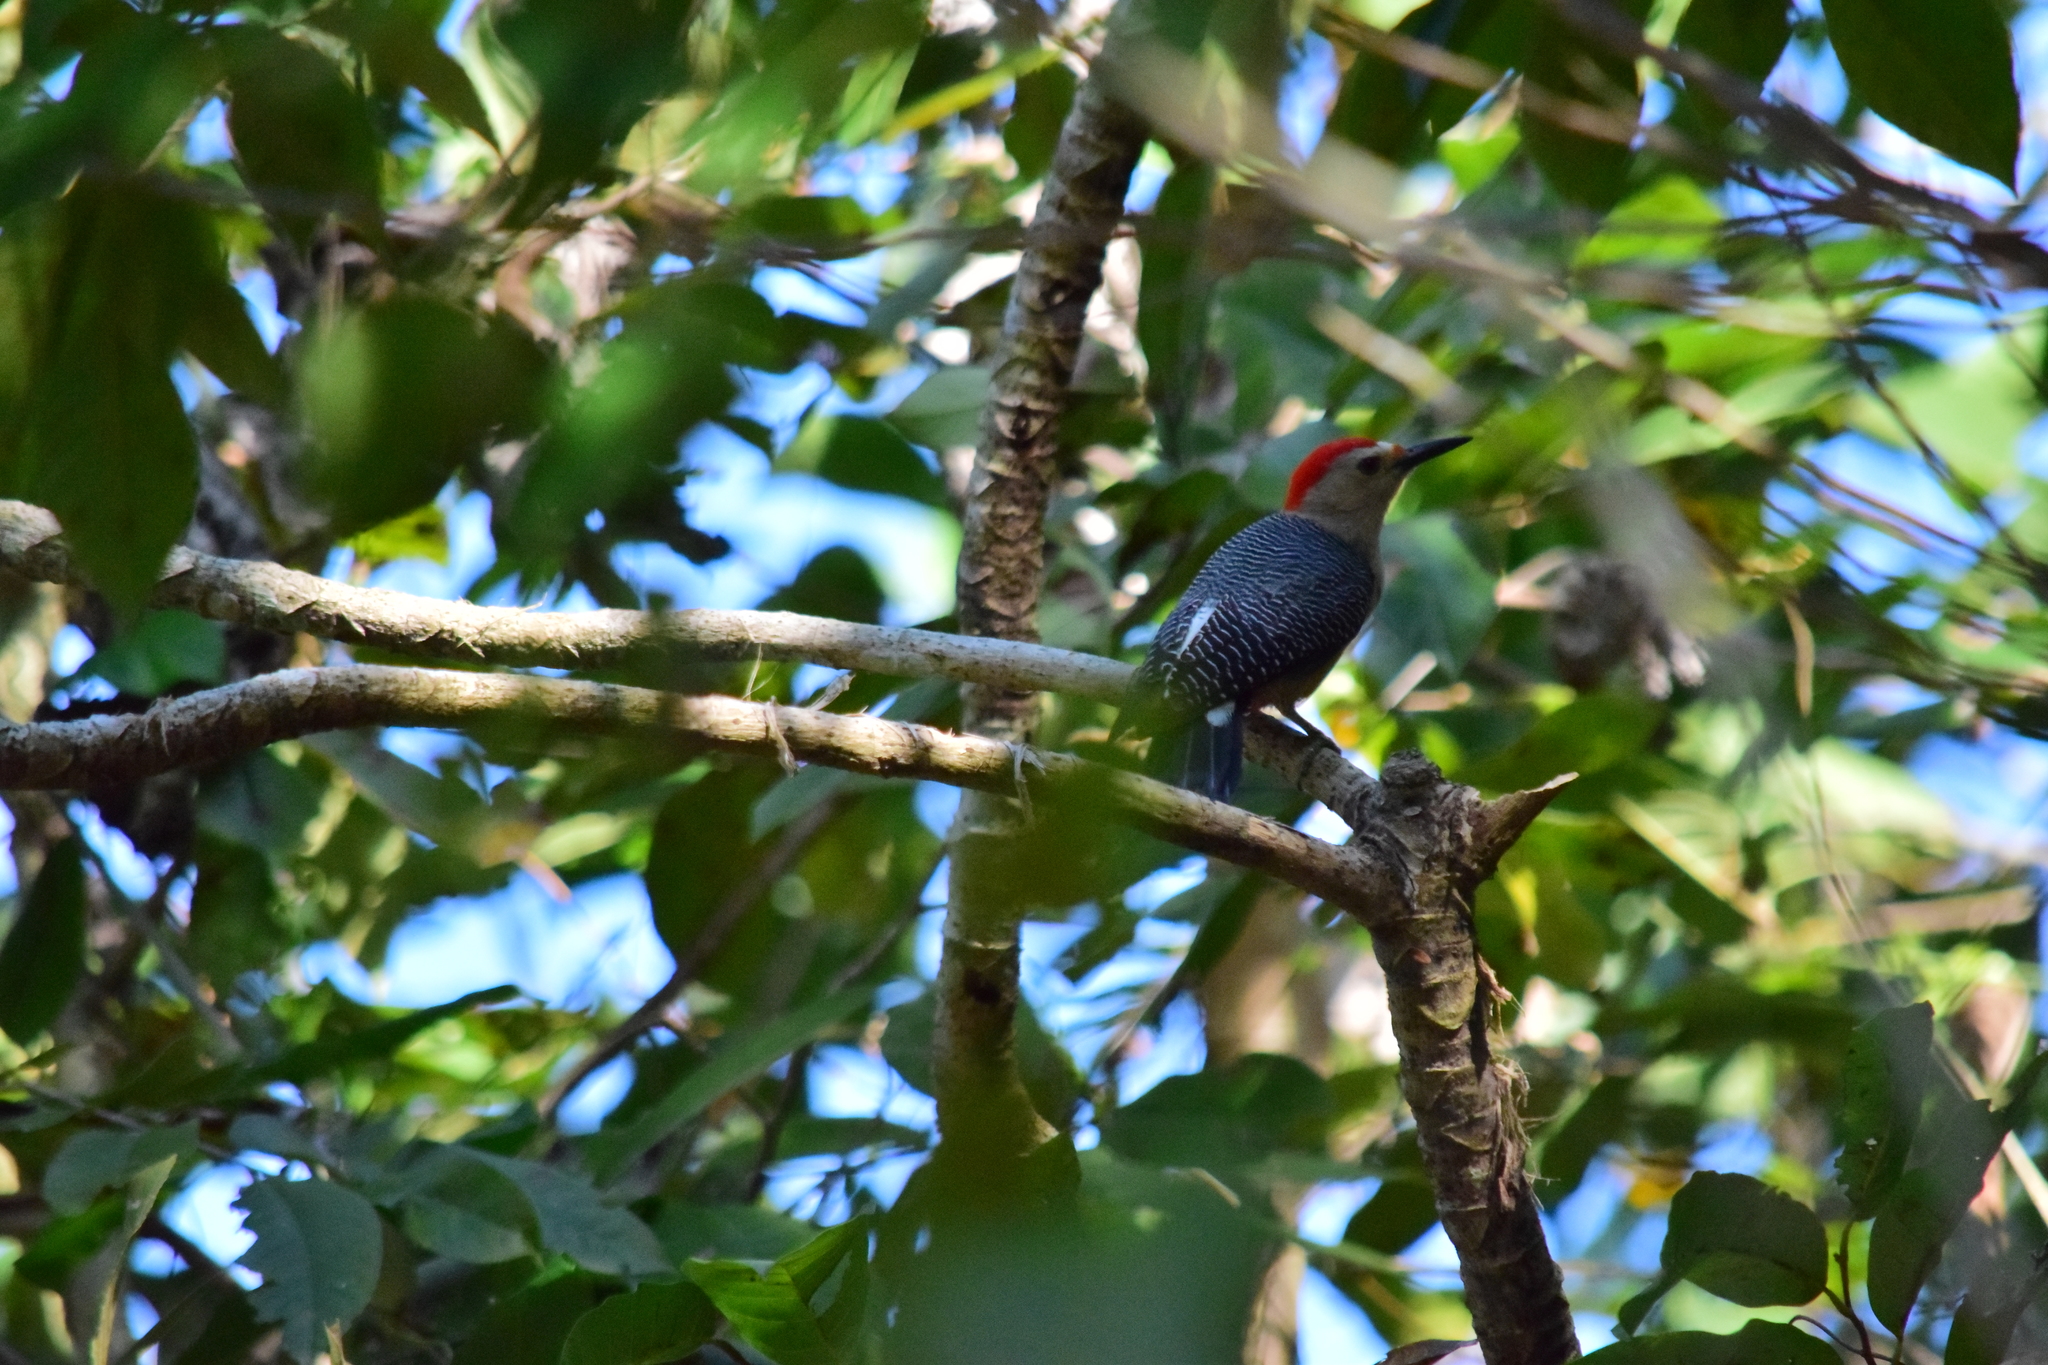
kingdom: Animalia
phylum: Chordata
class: Aves
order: Piciformes
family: Picidae
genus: Melanerpes
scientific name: Melanerpes aurifrons
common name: Golden-fronted woodpecker
